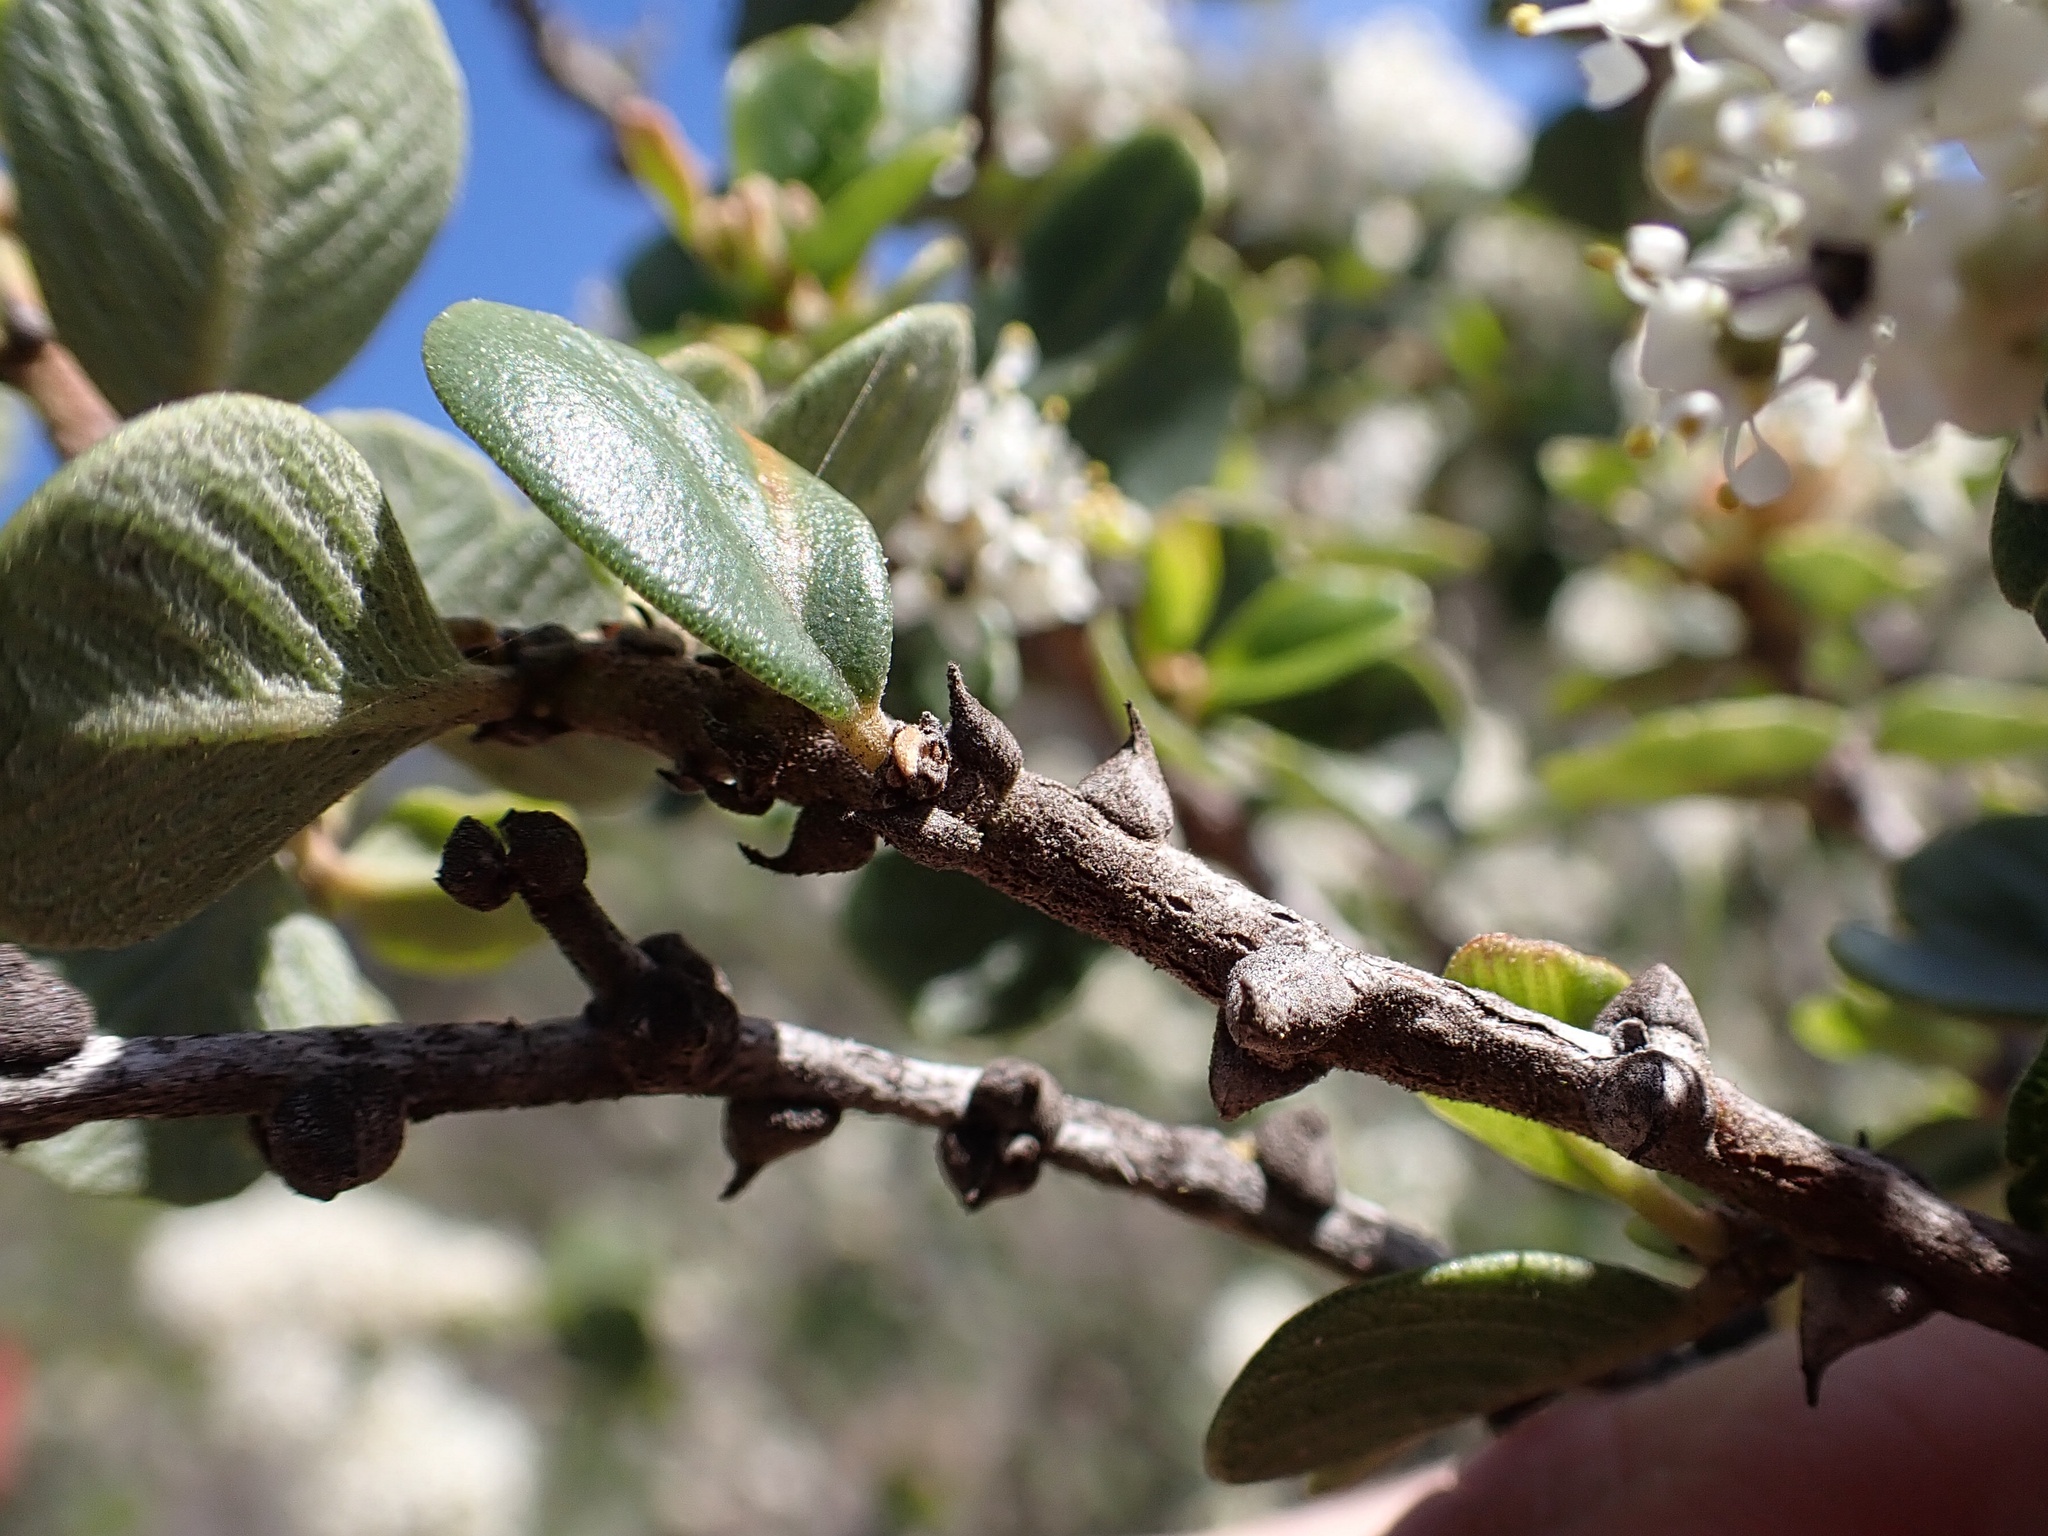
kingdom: Plantae
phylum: Tracheophyta
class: Magnoliopsida
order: Rosales
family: Rhamnaceae
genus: Ceanothus
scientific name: Ceanothus verrucosus
